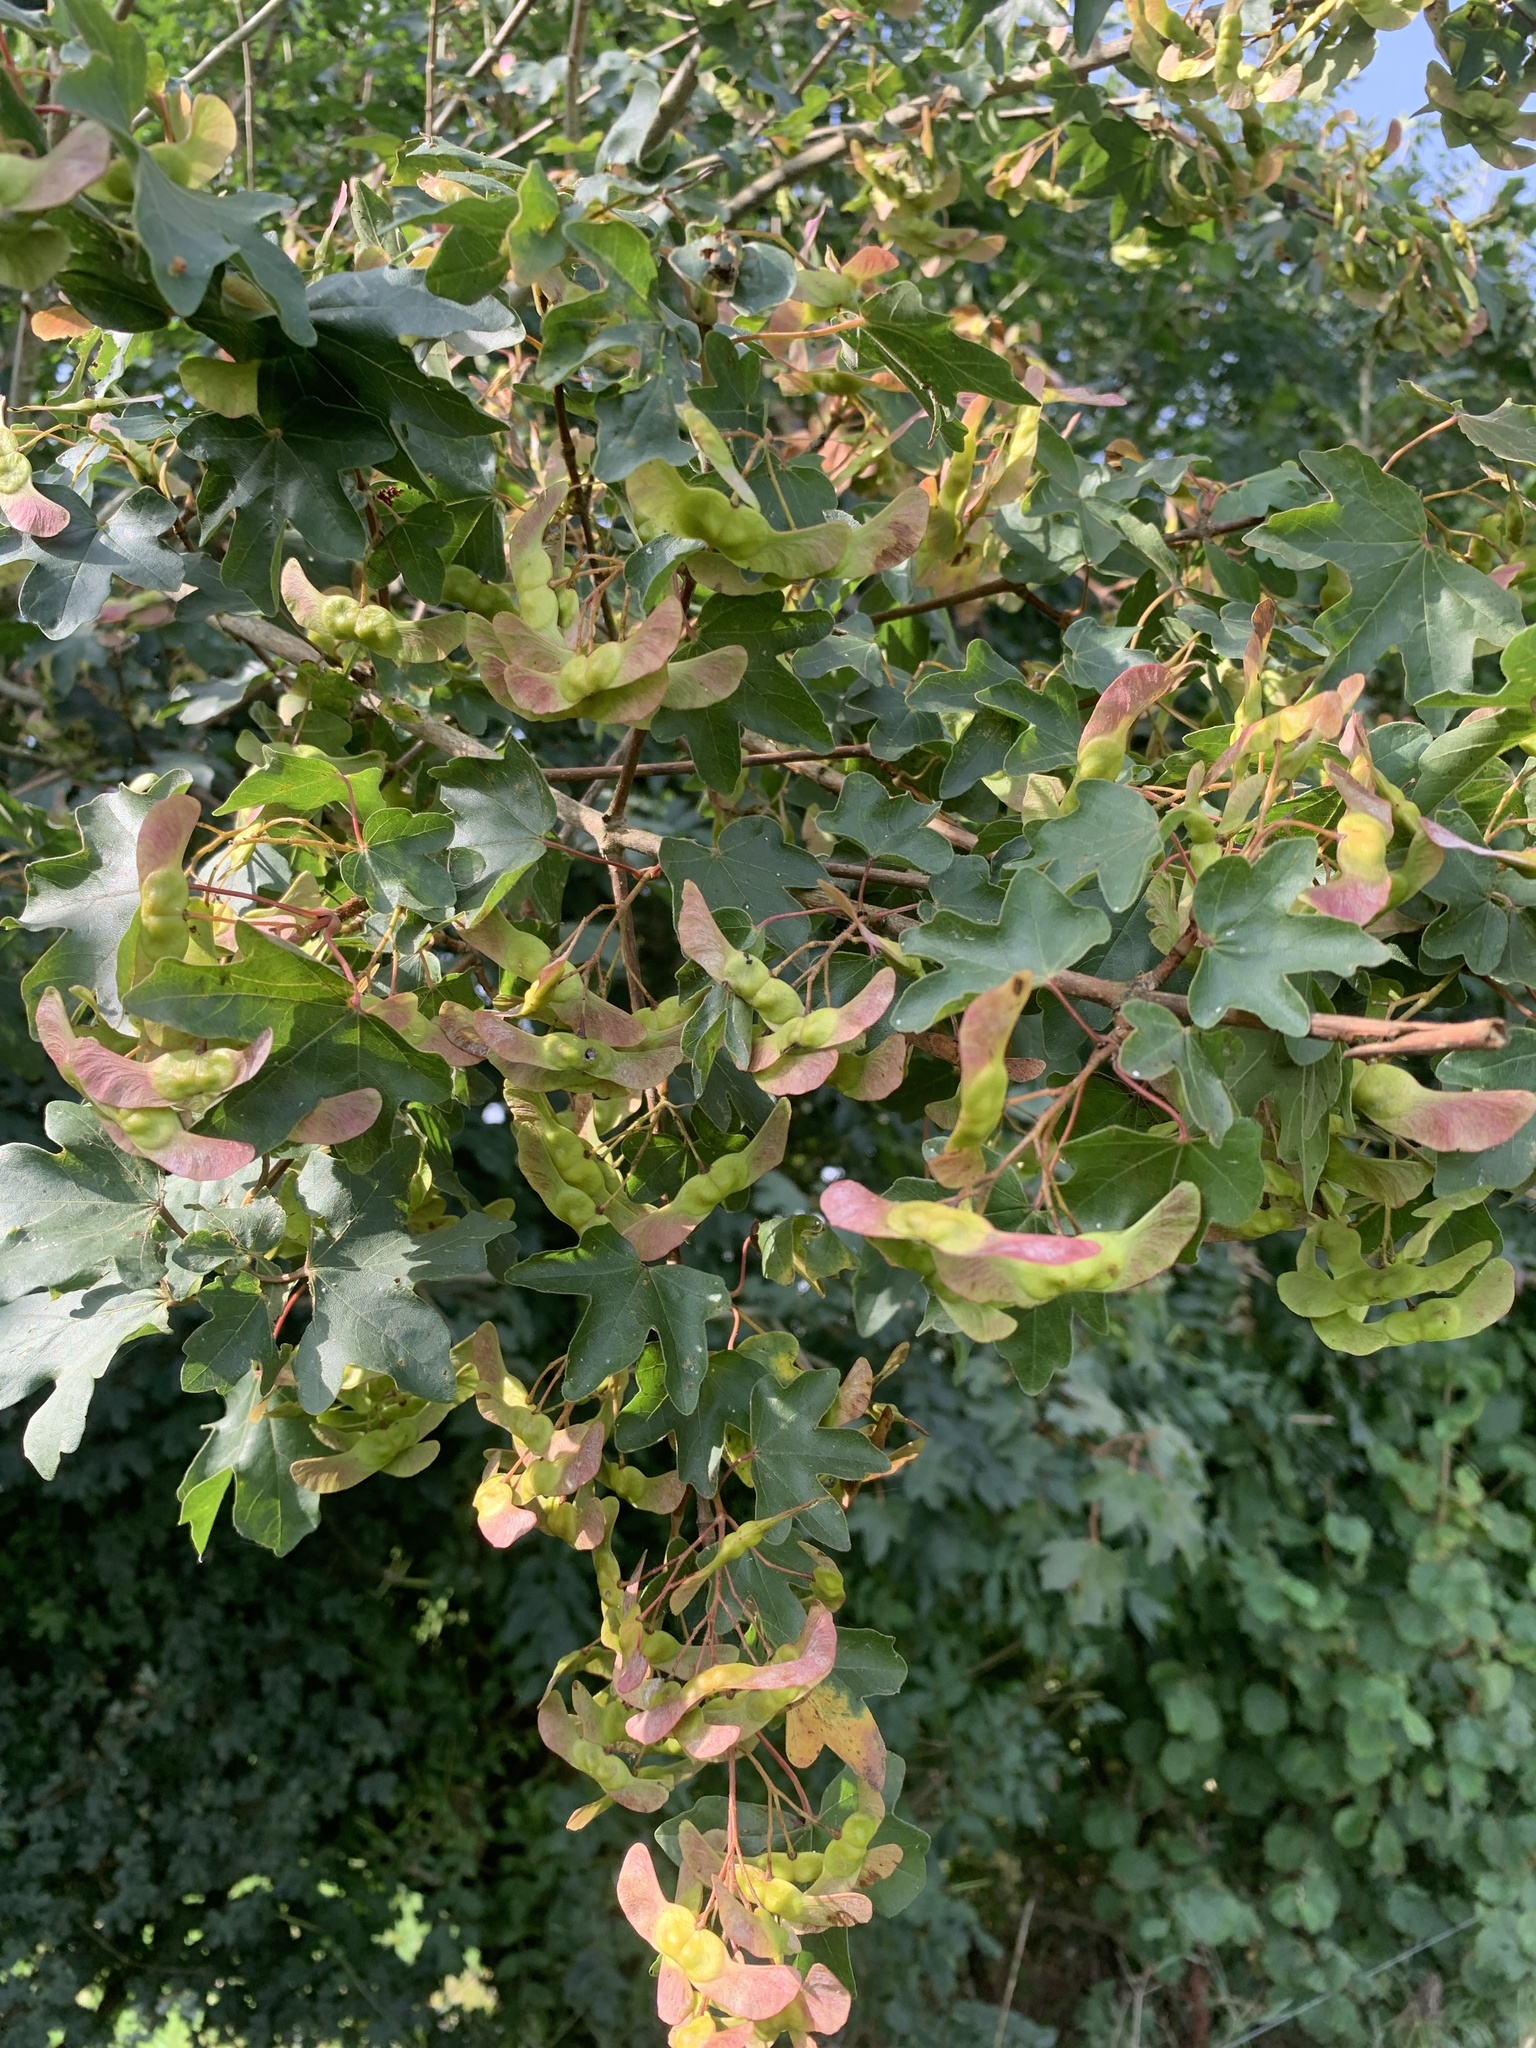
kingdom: Plantae
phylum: Tracheophyta
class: Magnoliopsida
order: Sapindales
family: Sapindaceae
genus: Acer
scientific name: Acer campestre
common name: Field maple
